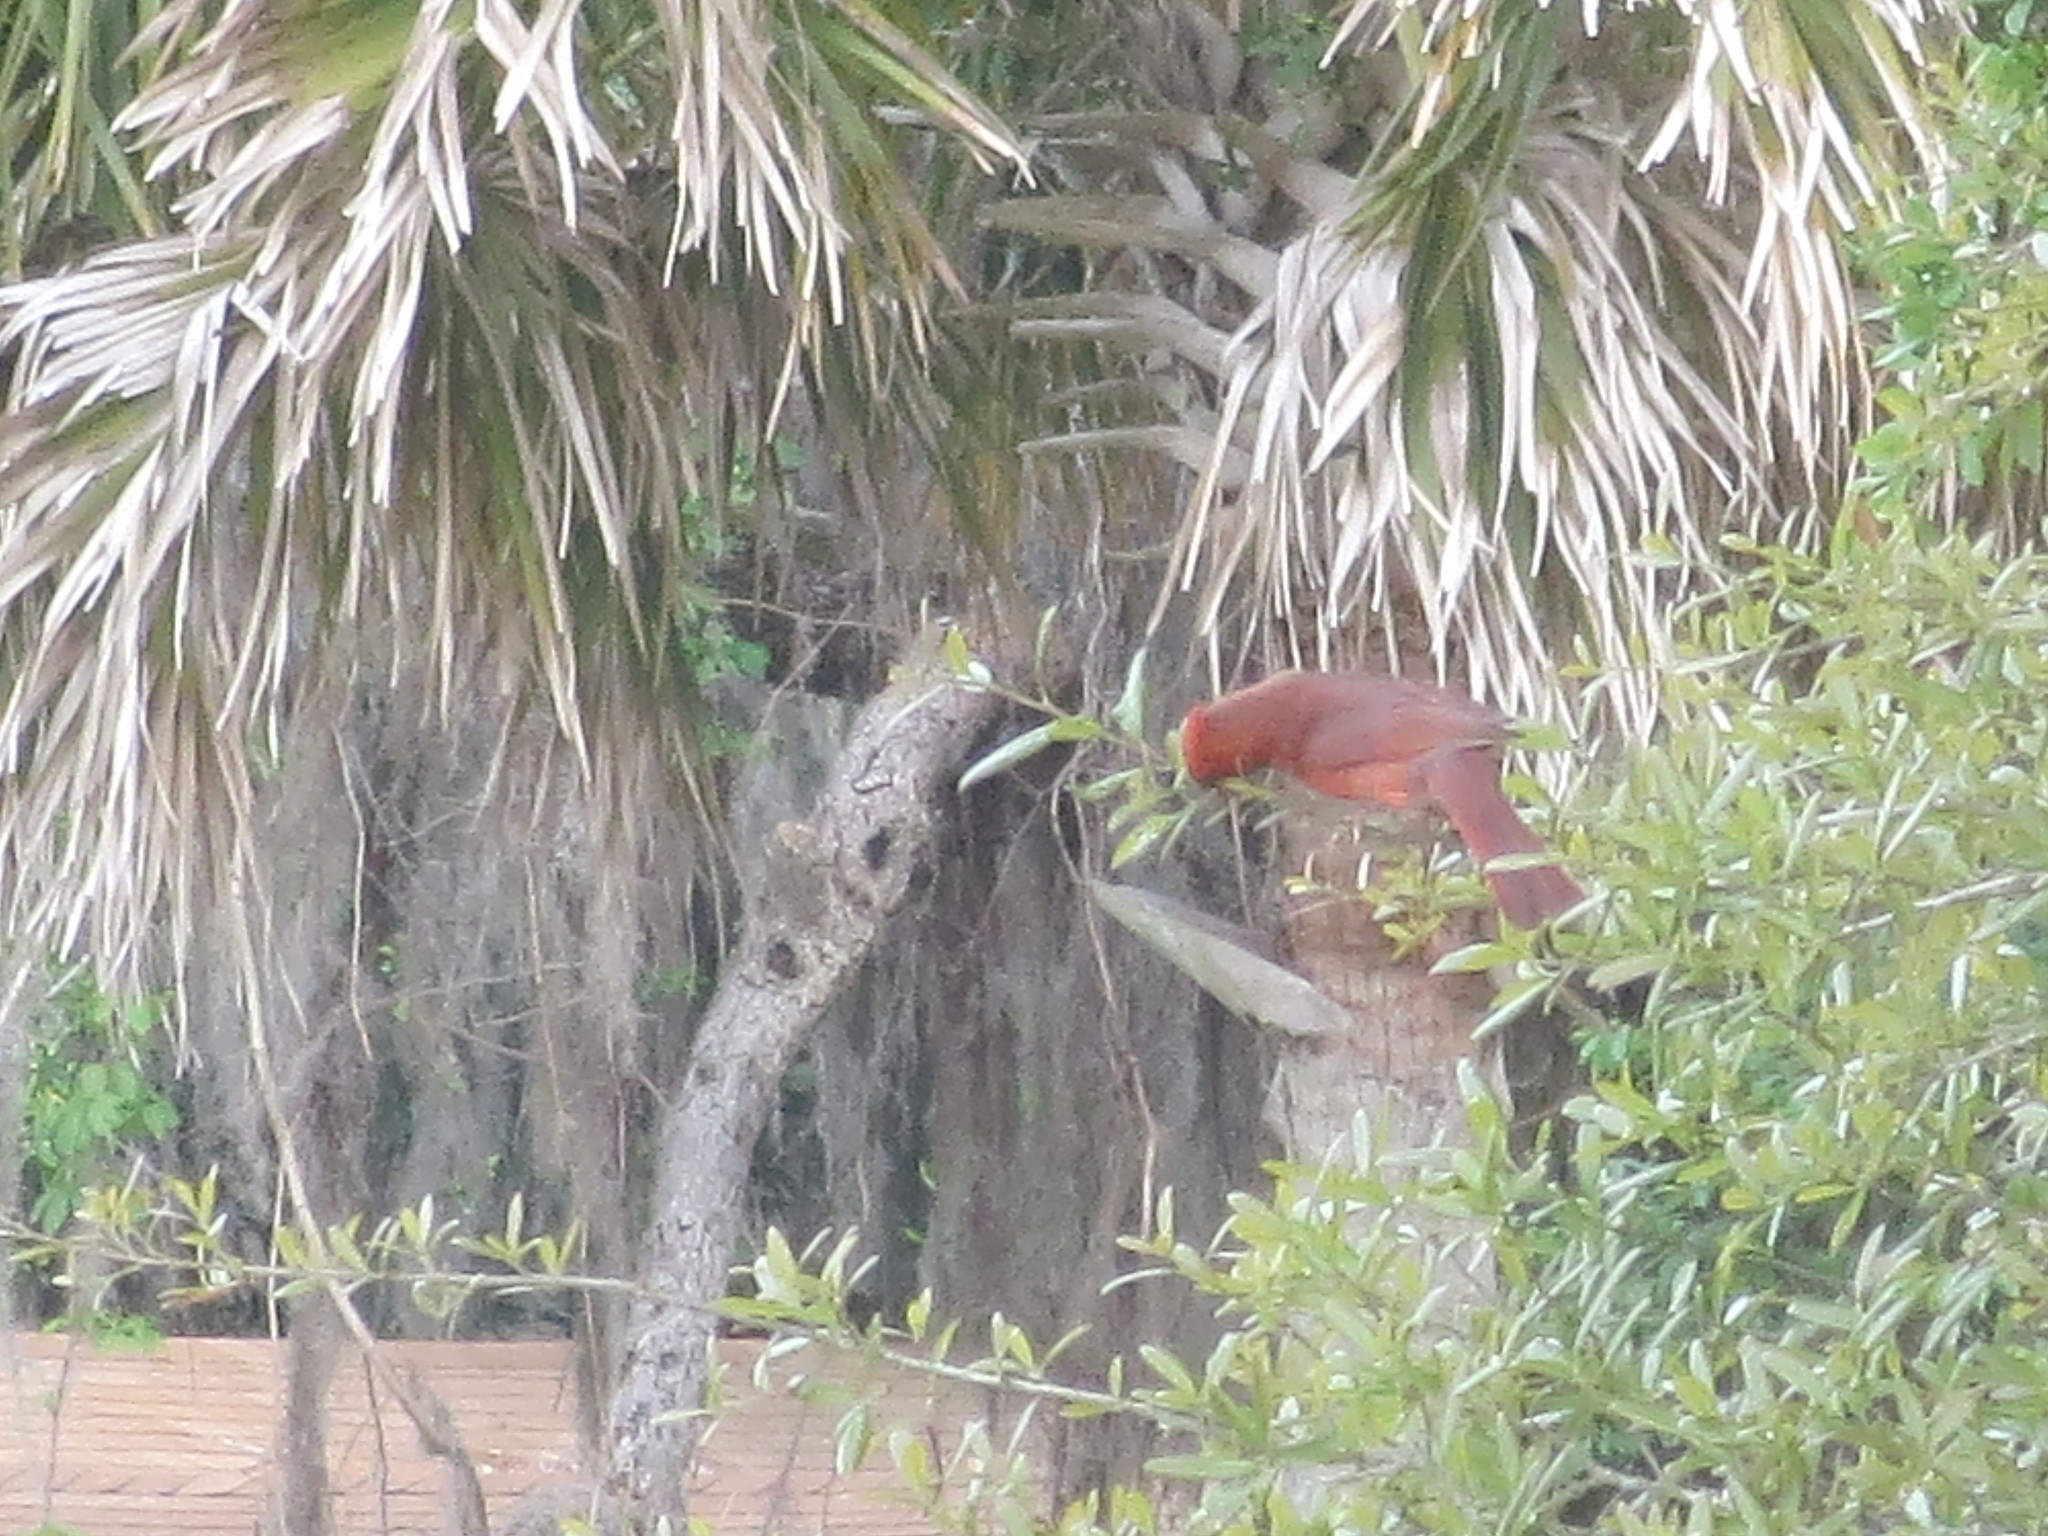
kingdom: Animalia
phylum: Chordata
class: Aves
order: Passeriformes
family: Cardinalidae
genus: Cardinalis
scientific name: Cardinalis cardinalis
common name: Northern cardinal
